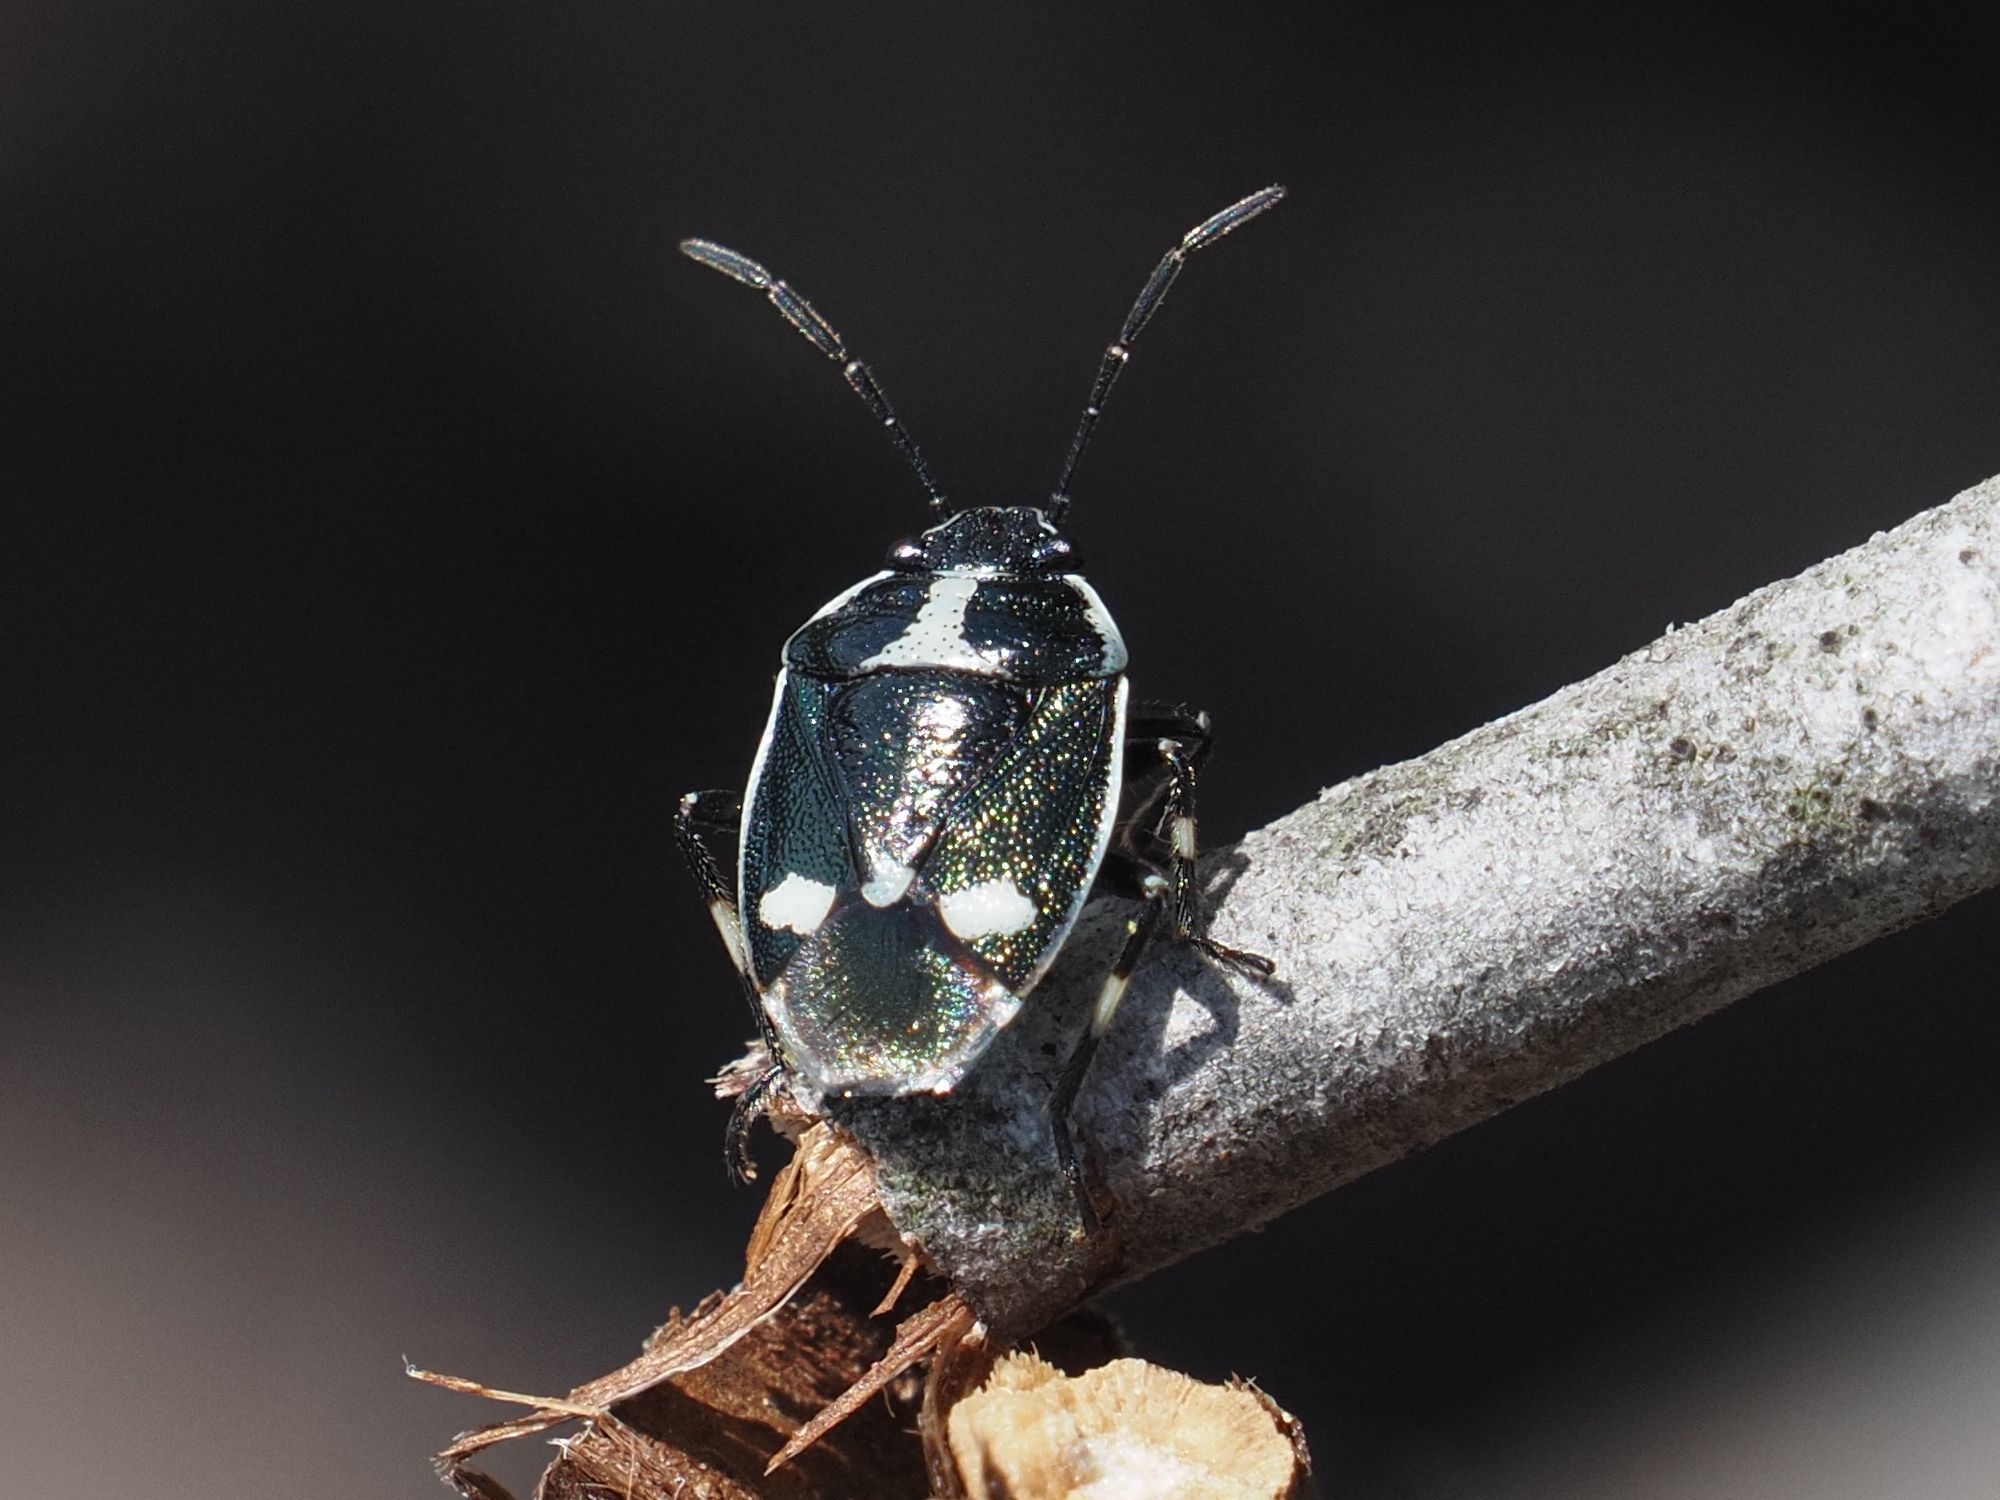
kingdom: Animalia
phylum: Arthropoda
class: Insecta
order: Hemiptera
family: Pentatomidae
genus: Eurydema
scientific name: Eurydema oleracea
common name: Cabbage bug
